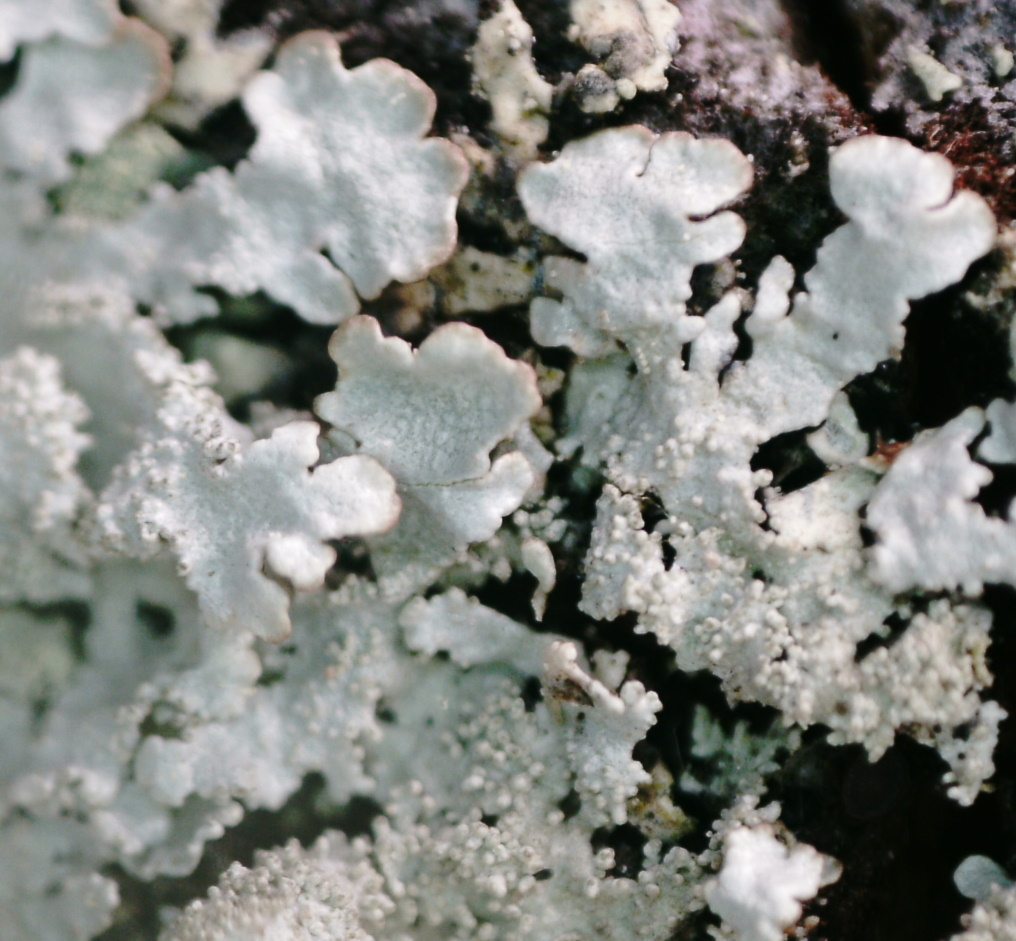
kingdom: Fungi
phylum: Ascomycota
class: Lecanoromycetes
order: Lecanorales
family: Parmeliaceae
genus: Imshaugia
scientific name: Imshaugia aleurites
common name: Salted starburst lichen
